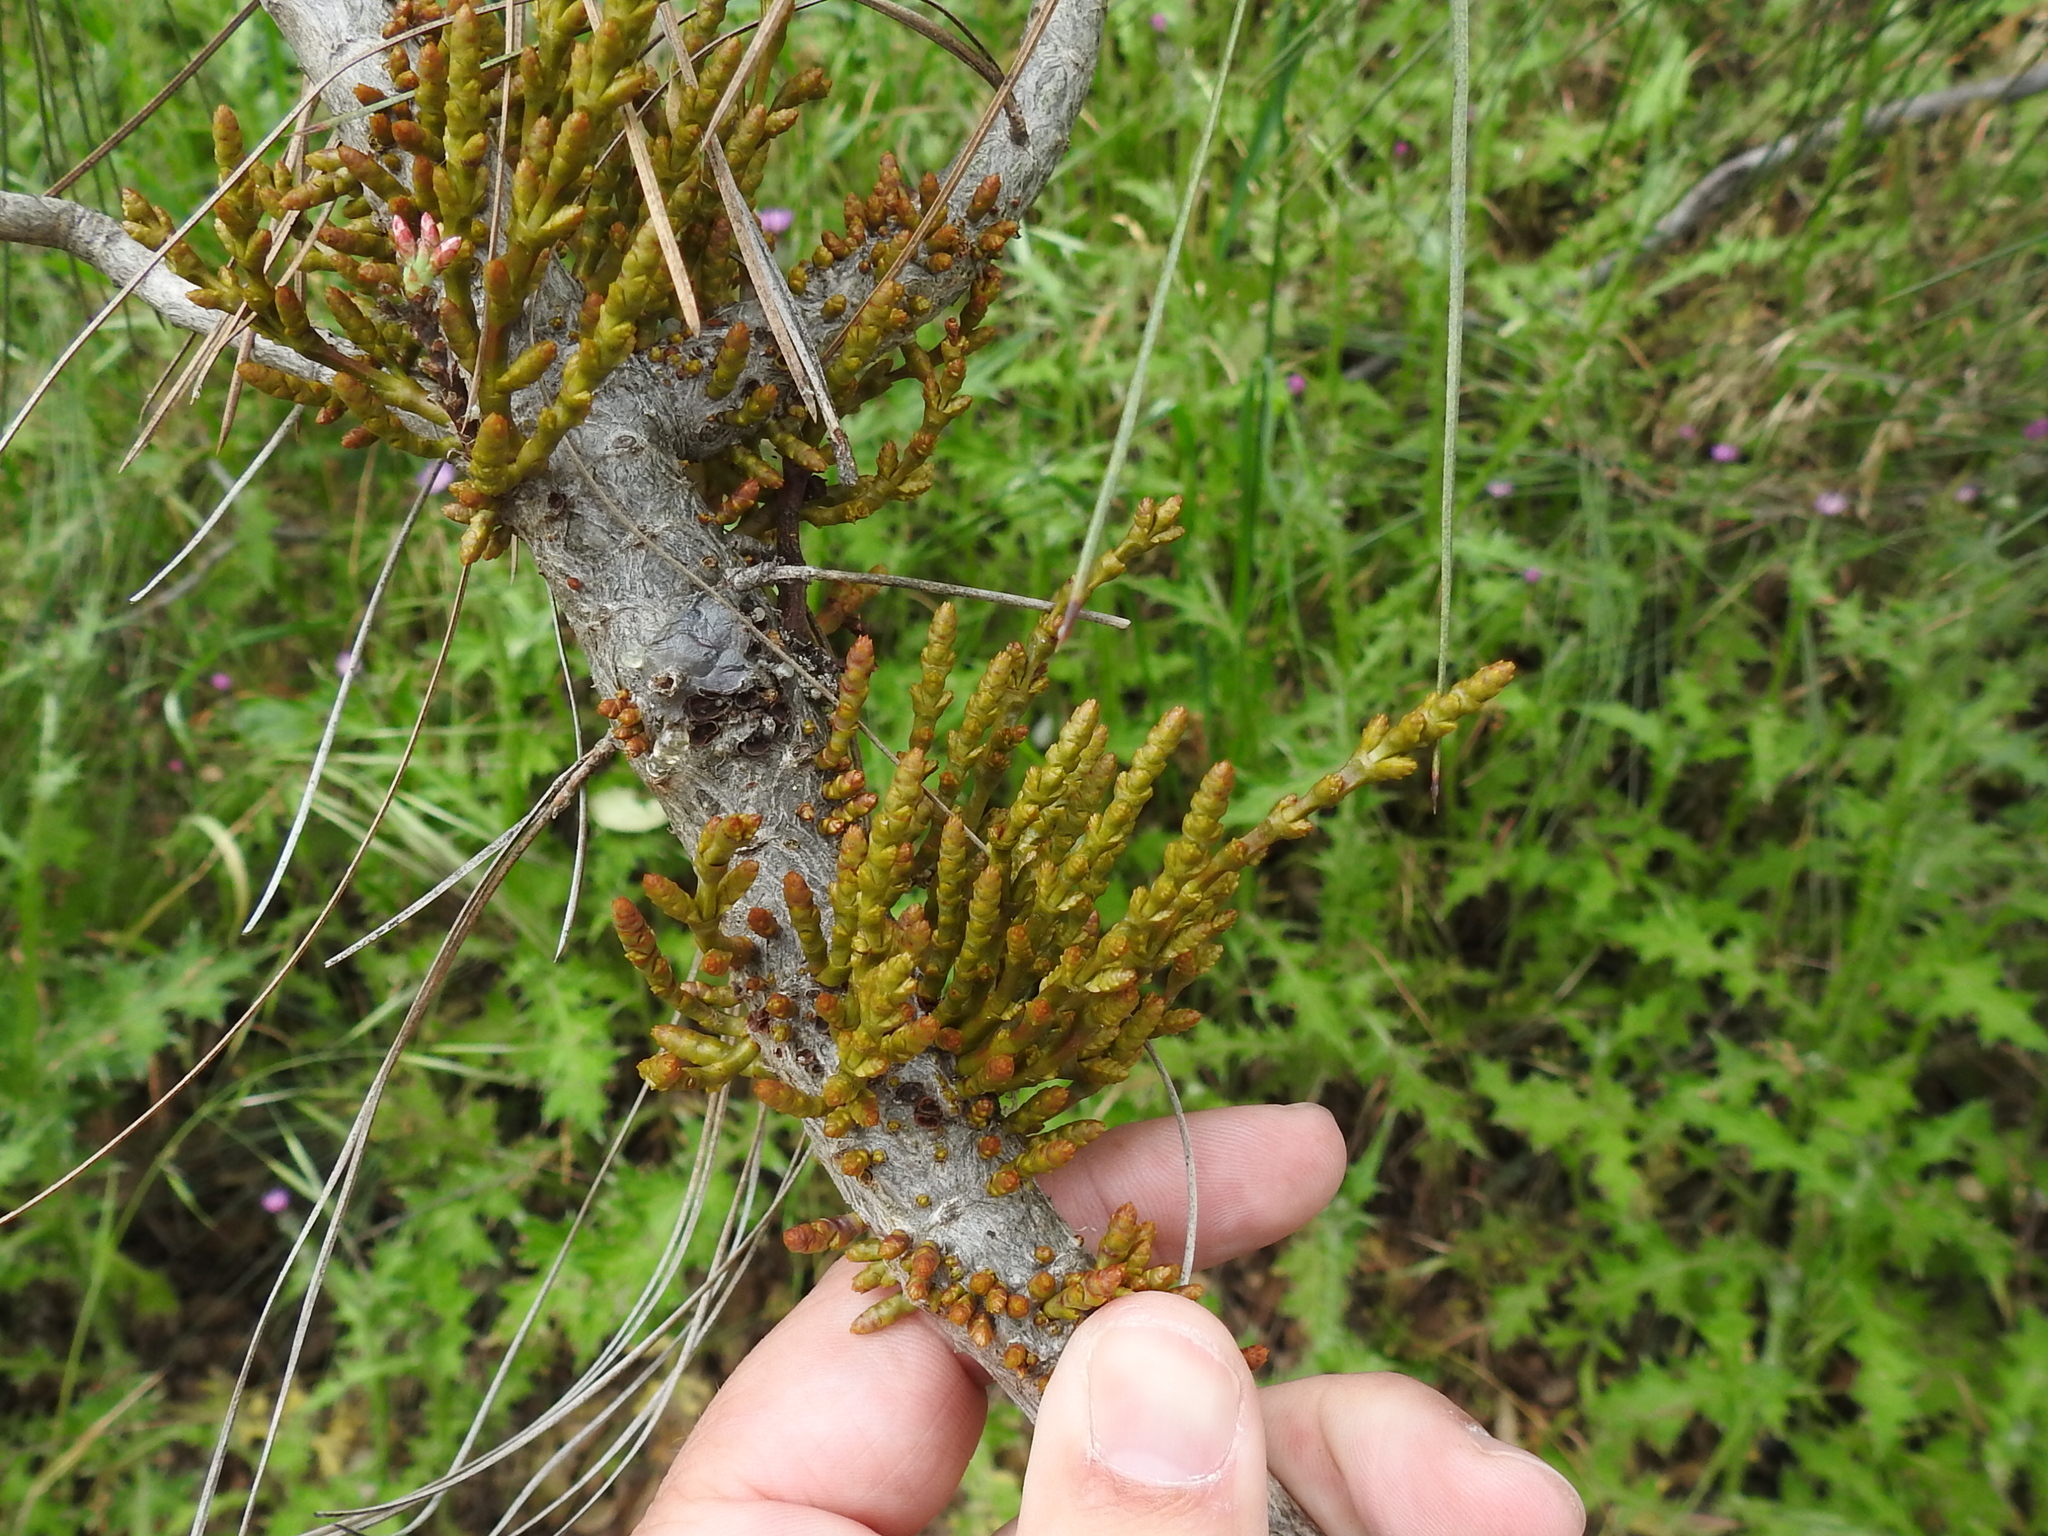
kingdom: Plantae
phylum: Tracheophyta
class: Magnoliopsida
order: Santalales
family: Viscaceae
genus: Arceuthobium
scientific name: Arceuthobium campylopodum
